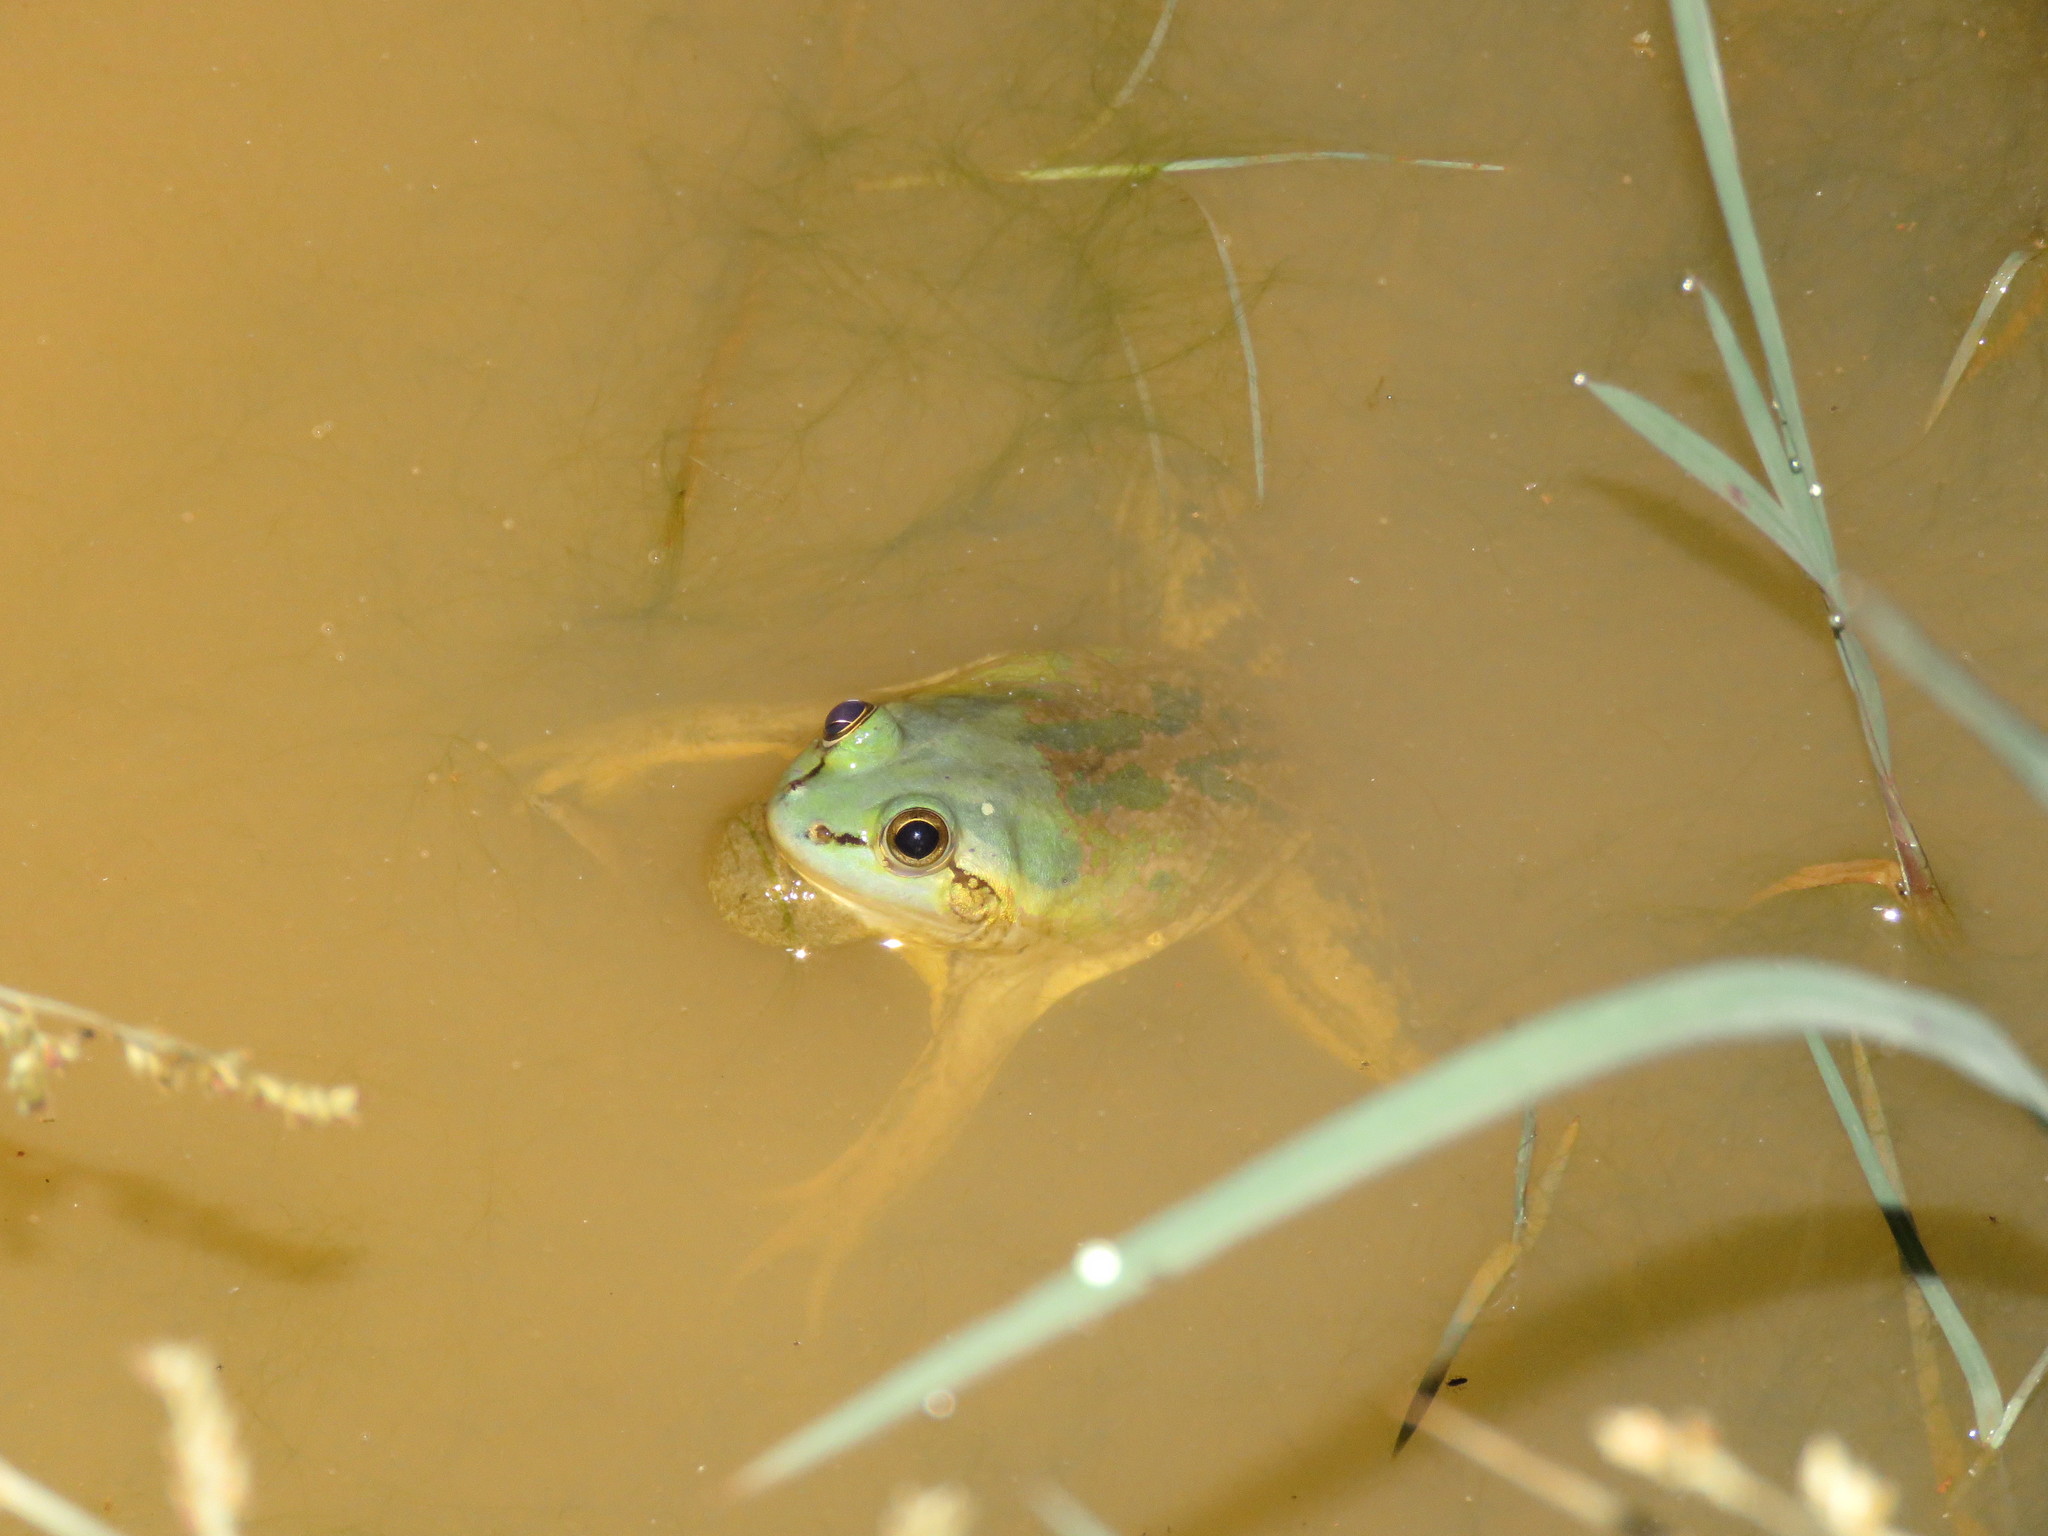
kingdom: Animalia
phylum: Chordata
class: Amphibia
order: Anura
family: Hylidae
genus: Pseudis
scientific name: Pseudis paradoxa
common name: Swimming frog
